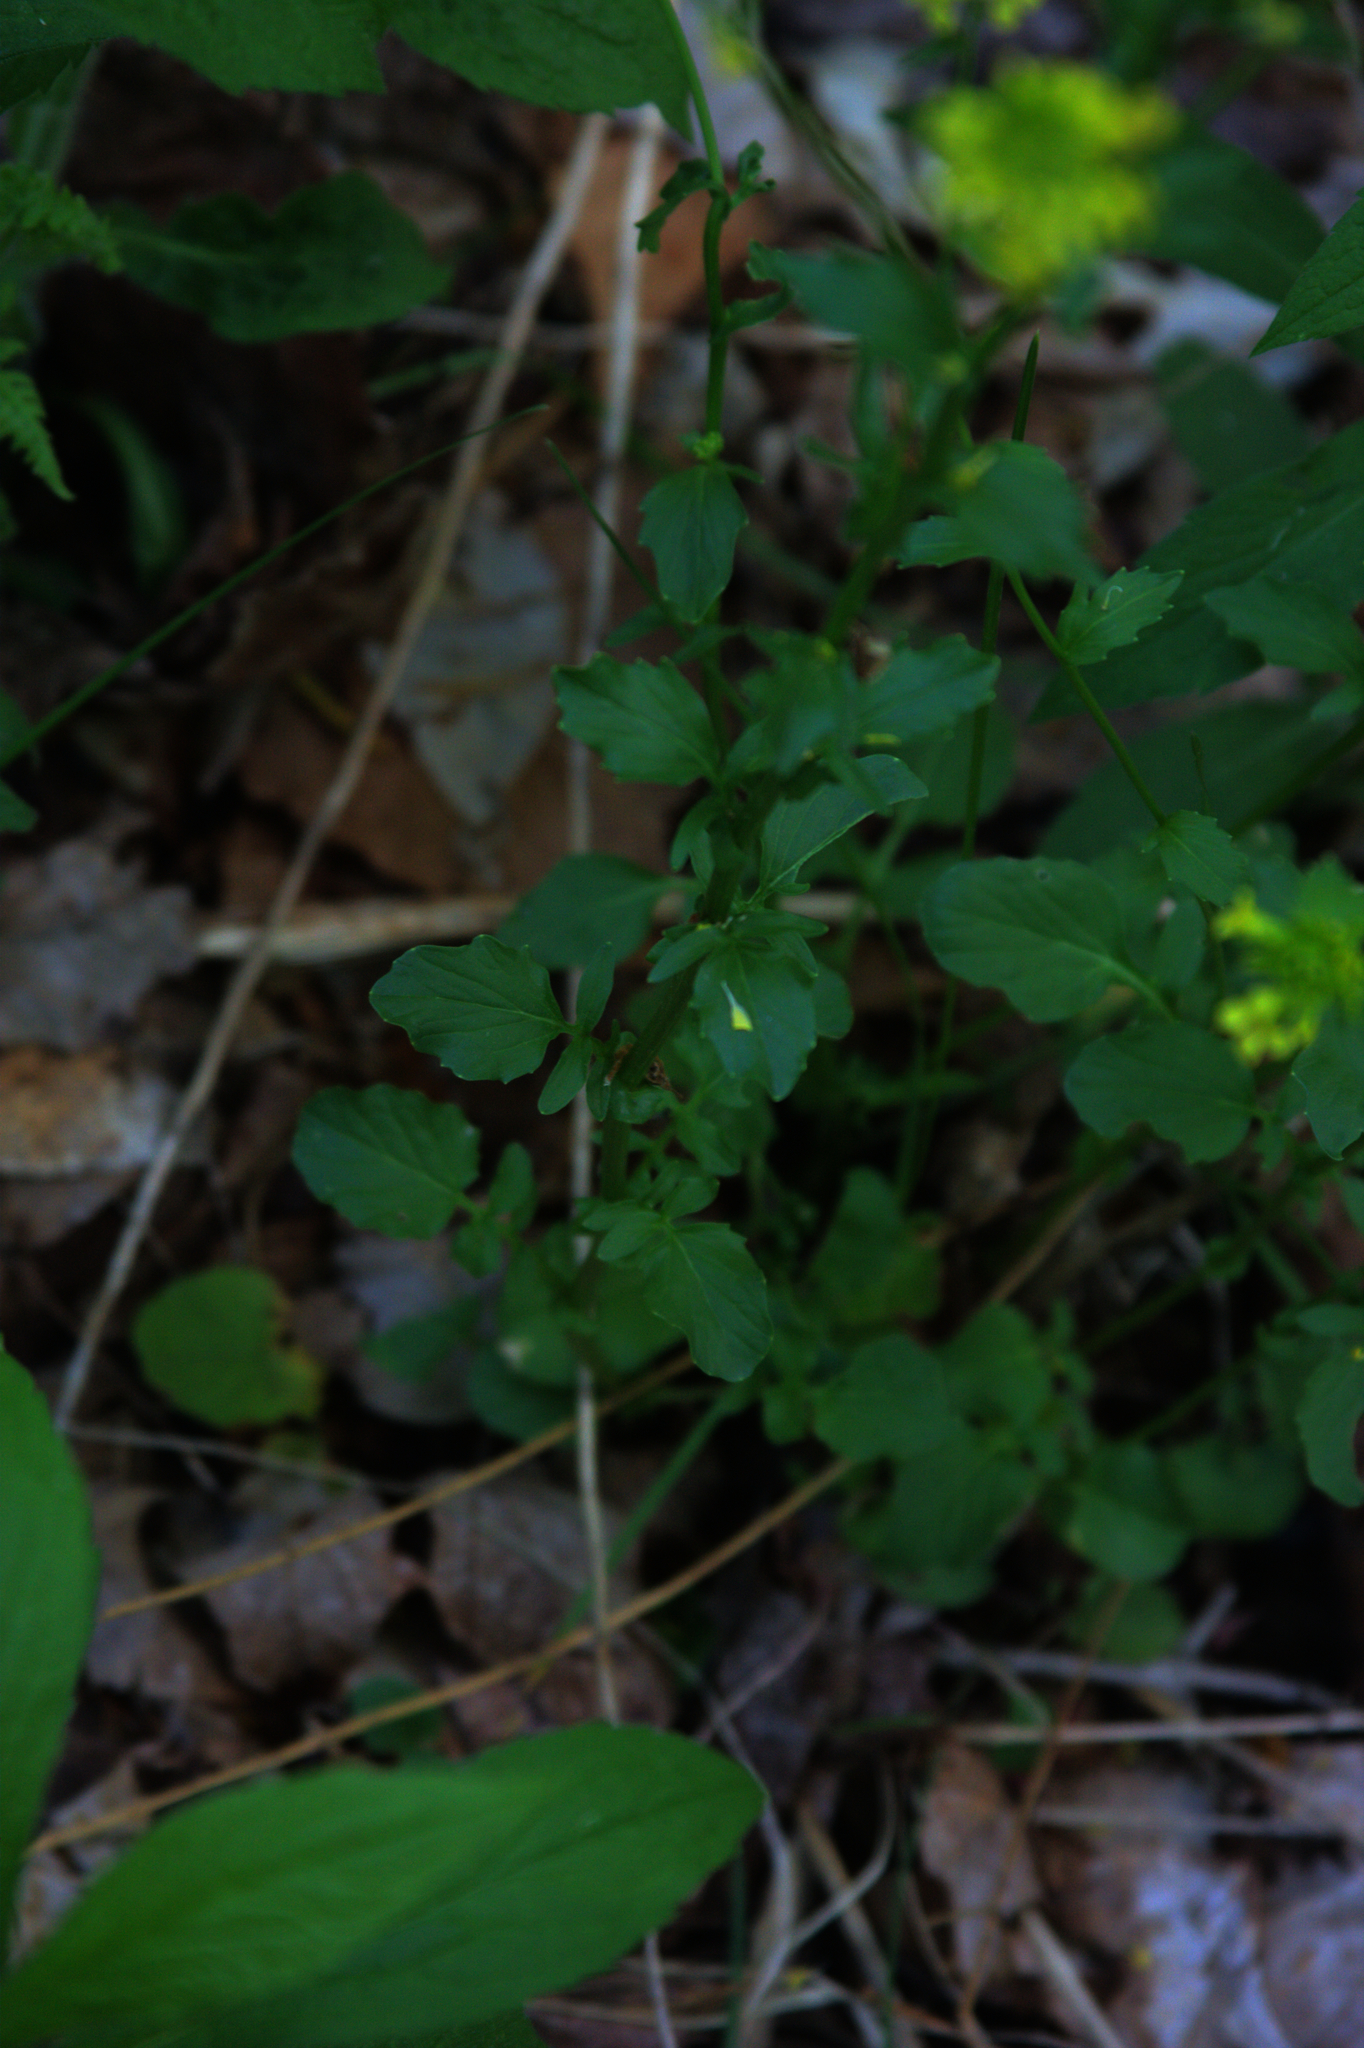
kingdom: Plantae
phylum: Tracheophyta
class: Magnoliopsida
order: Brassicales
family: Brassicaceae
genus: Barbarea
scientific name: Barbarea vulgaris
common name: Cressy-greens
